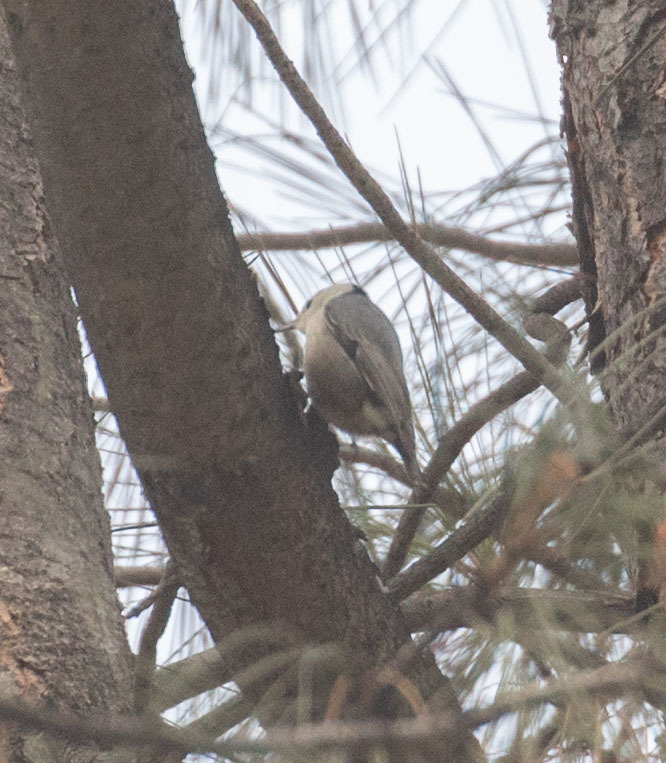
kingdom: Animalia
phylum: Chordata
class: Aves
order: Passeriformes
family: Sittidae
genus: Sitta
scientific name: Sitta carolinensis
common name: White-breasted nuthatch
